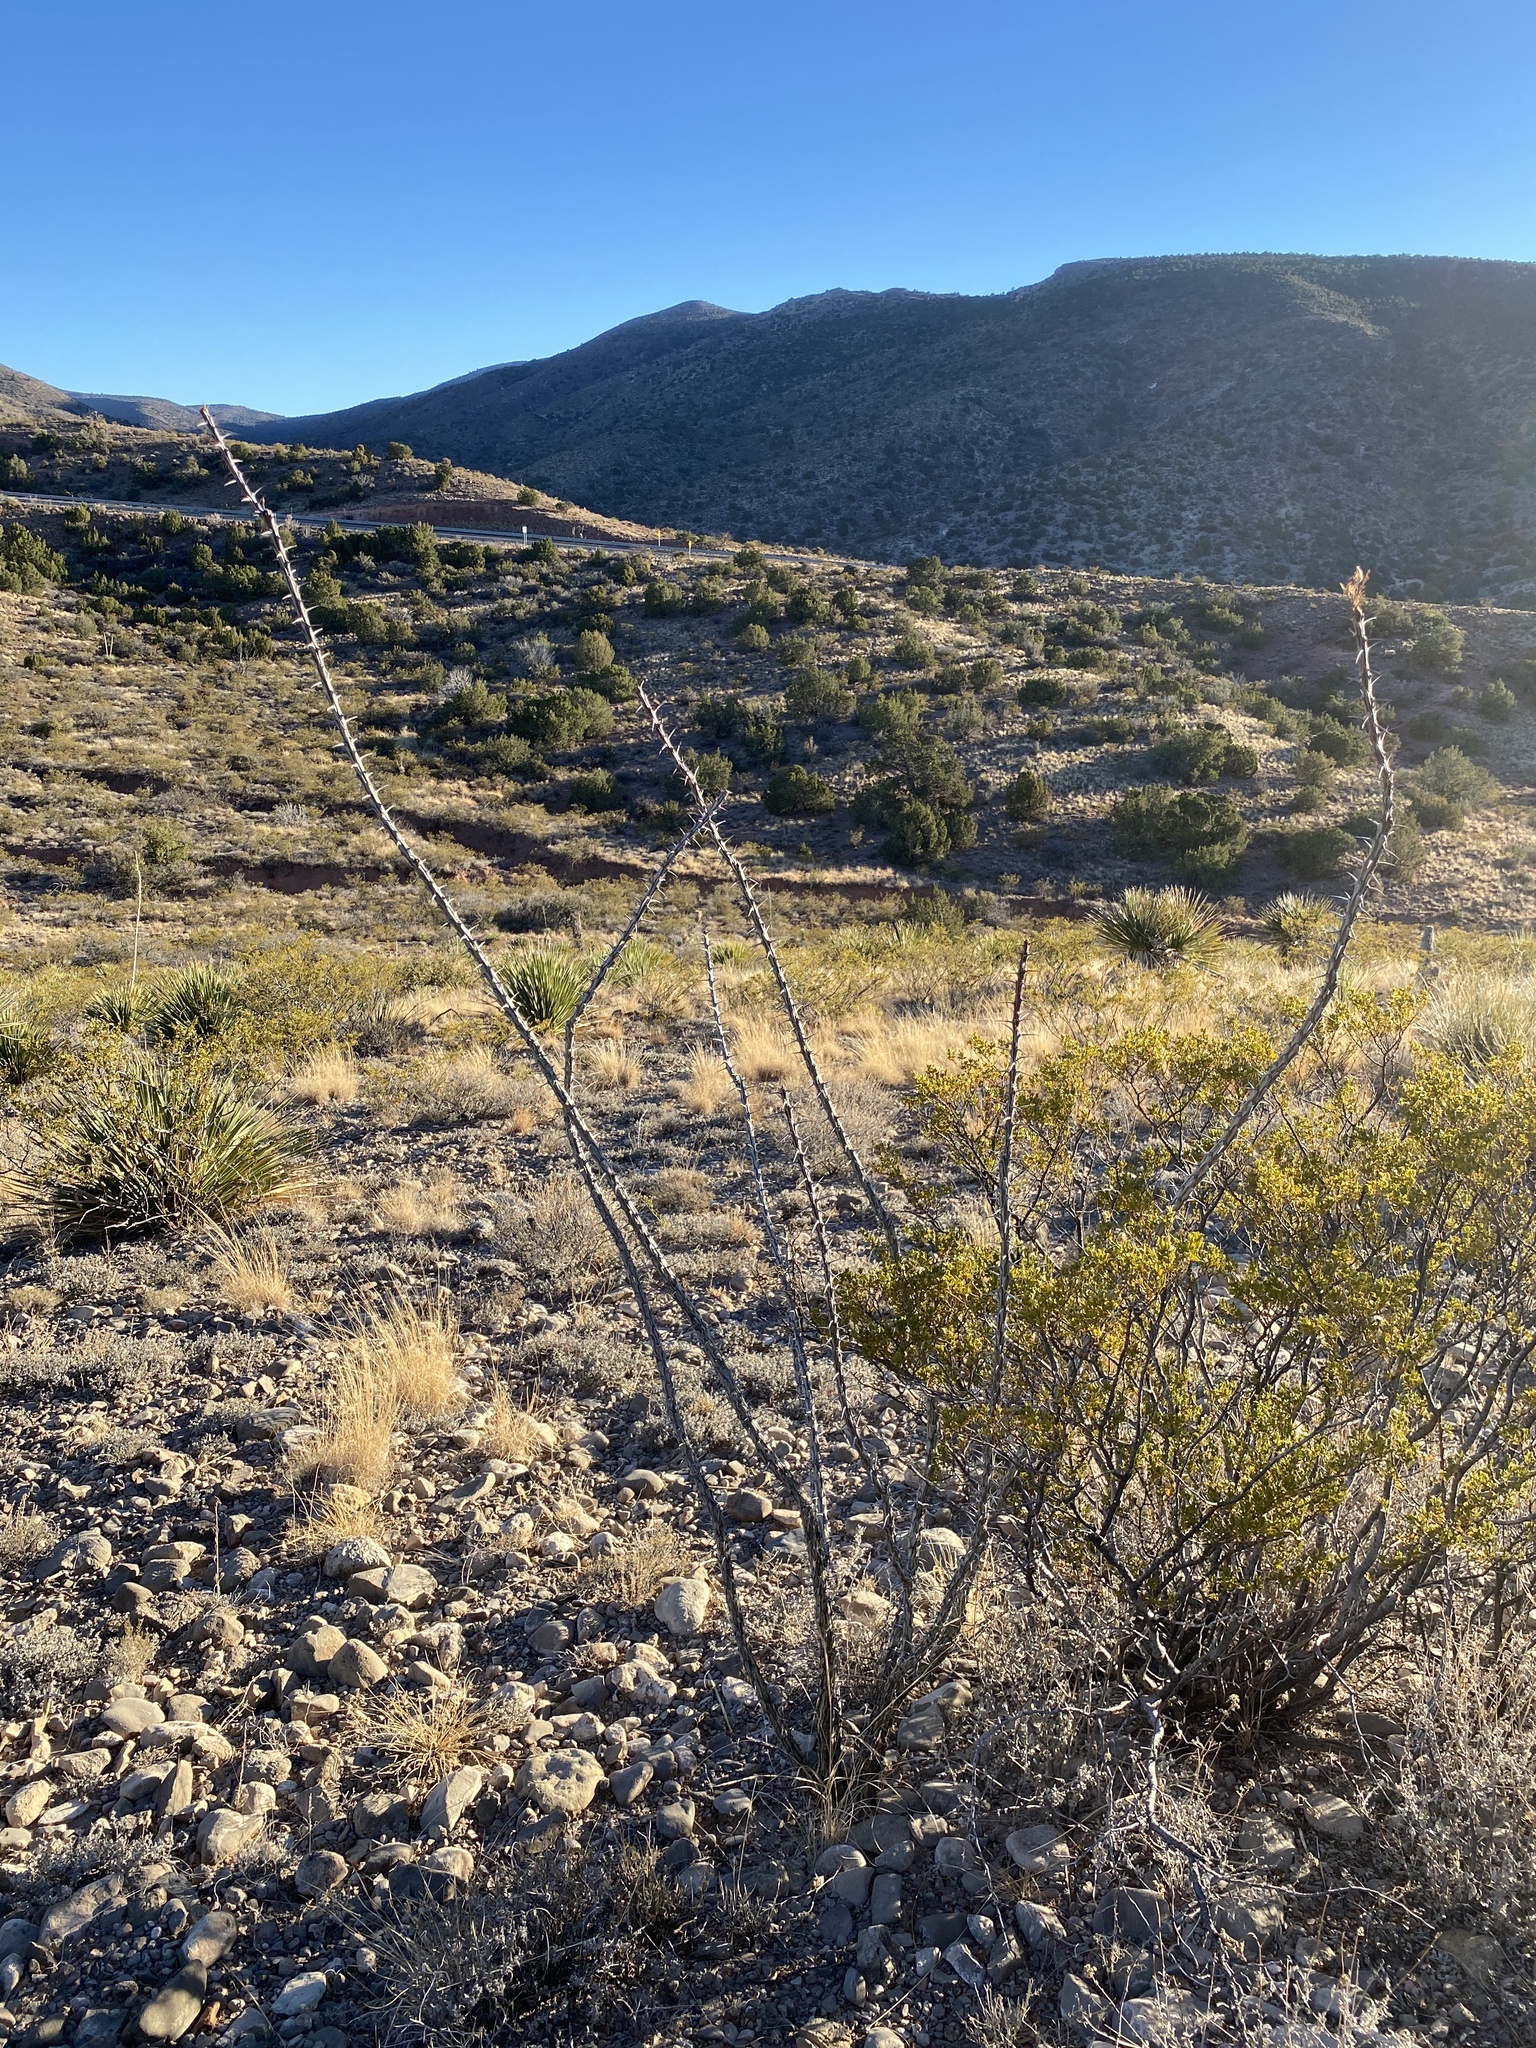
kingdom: Plantae
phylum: Tracheophyta
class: Magnoliopsida
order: Ericales
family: Fouquieriaceae
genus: Fouquieria
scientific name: Fouquieria splendens
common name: Vine-cactus
